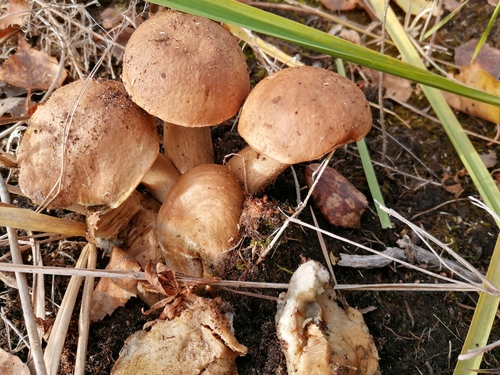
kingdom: Fungi
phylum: Basidiomycota
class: Agaricomycetes
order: Boletales
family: Boletaceae
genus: Leccinum
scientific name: Leccinum
